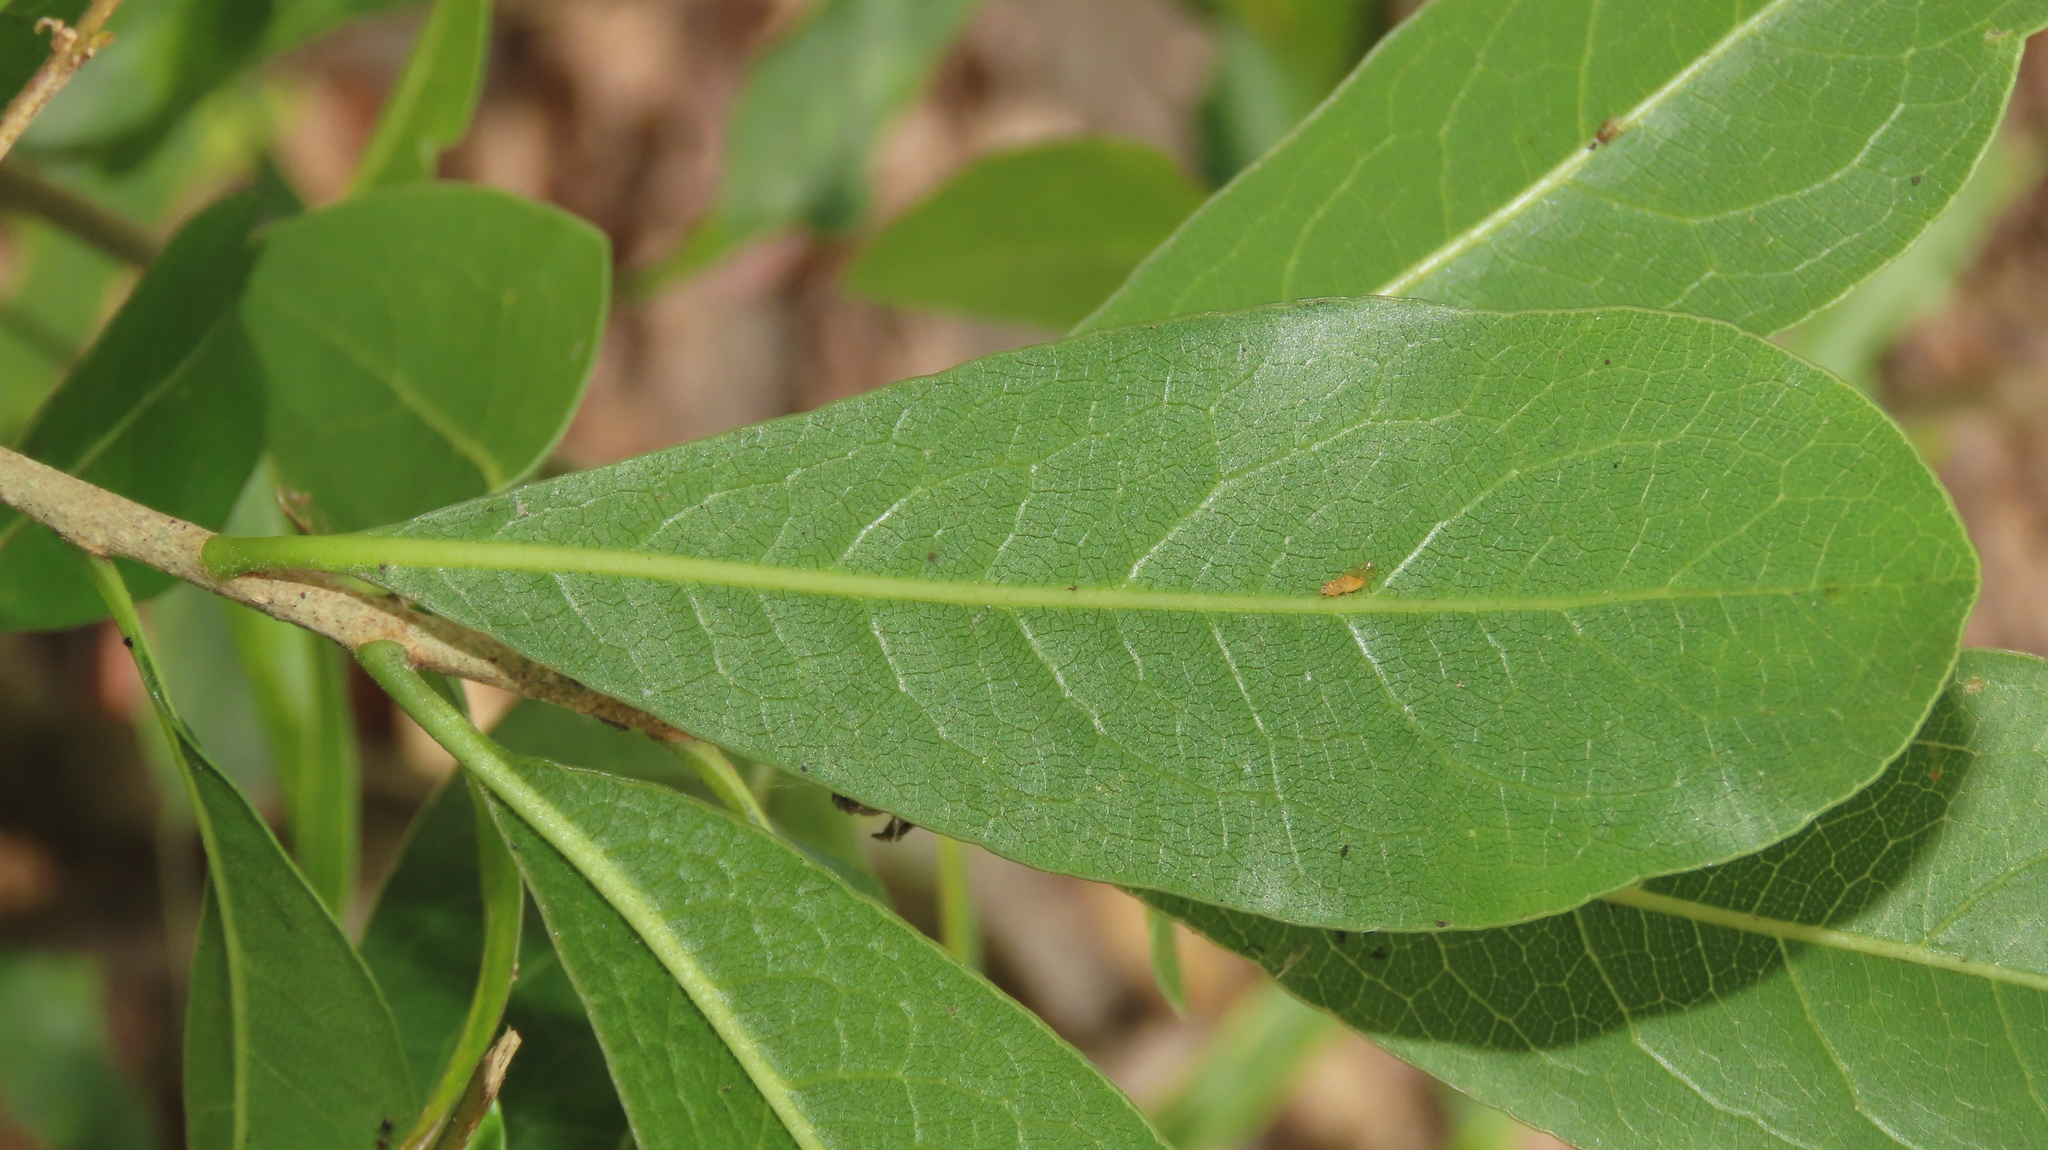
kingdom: Plantae
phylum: Tracheophyta
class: Magnoliopsida
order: Apiales
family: Pittosporaceae
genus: Pittosporum
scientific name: Pittosporum pentandrum
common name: Taiwanese cheesewood
